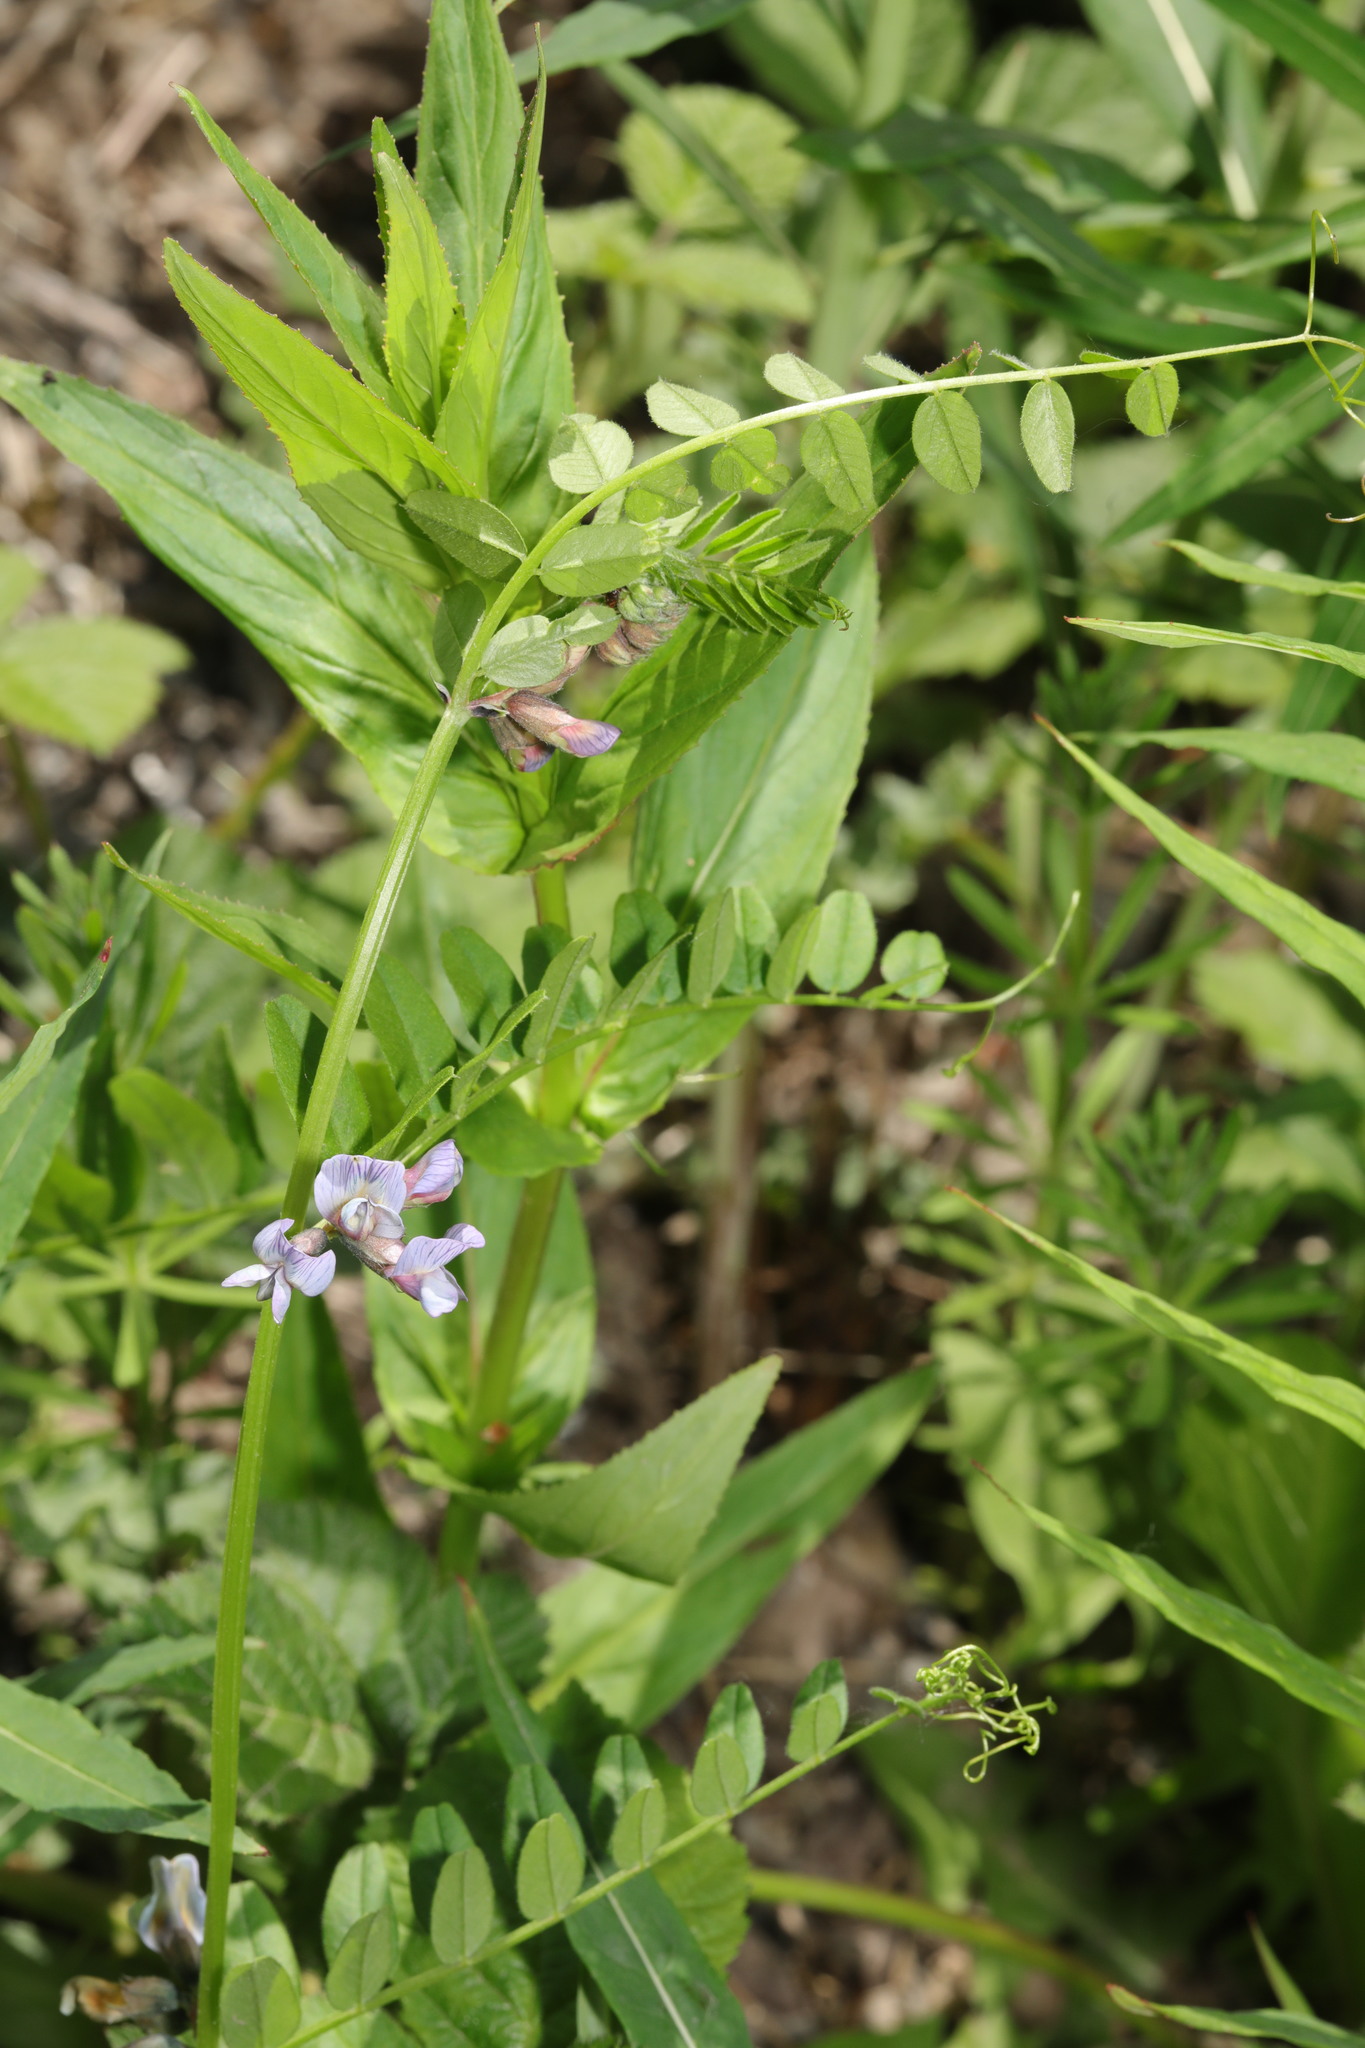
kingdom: Plantae
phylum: Tracheophyta
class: Magnoliopsida
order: Fabales
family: Fabaceae
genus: Vicia
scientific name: Vicia sepium
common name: Bush vetch
